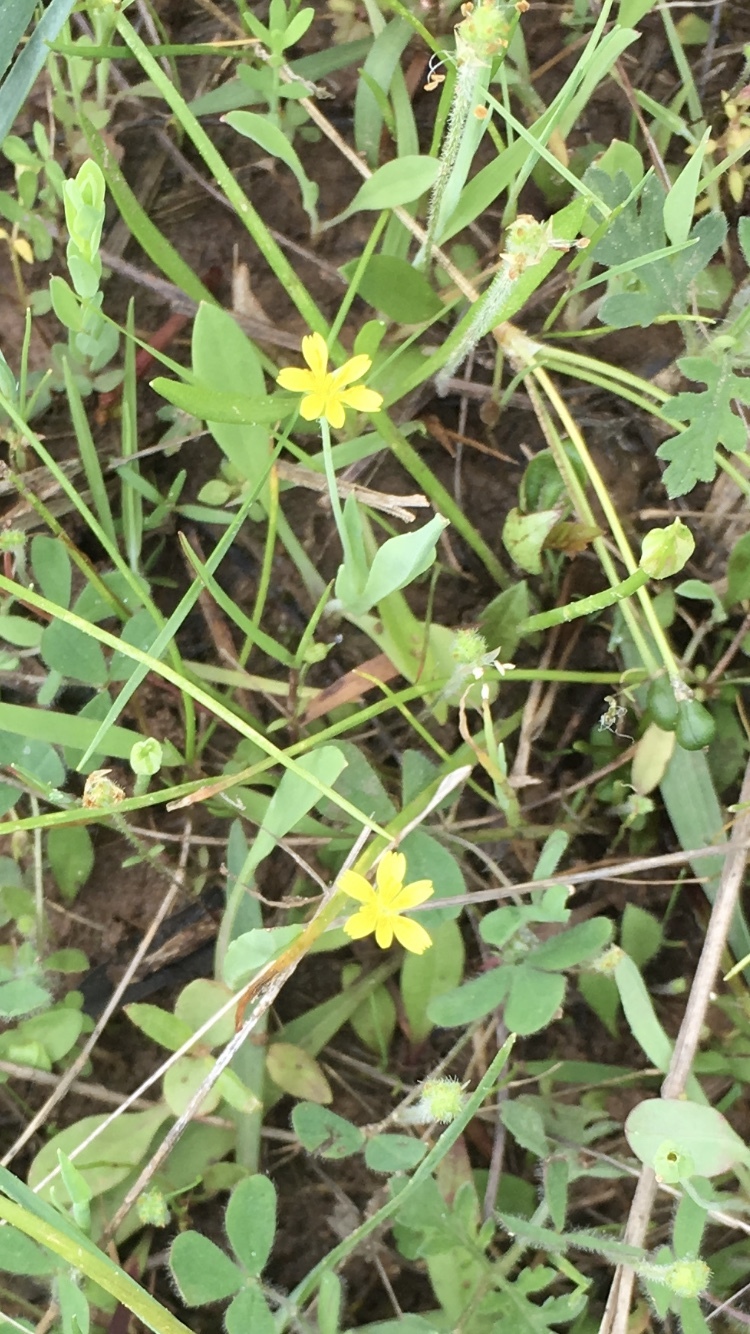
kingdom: Plantae
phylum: Tracheophyta
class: Magnoliopsida
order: Asterales
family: Asteraceae
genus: Krigia
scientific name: Krigia cespitosa
